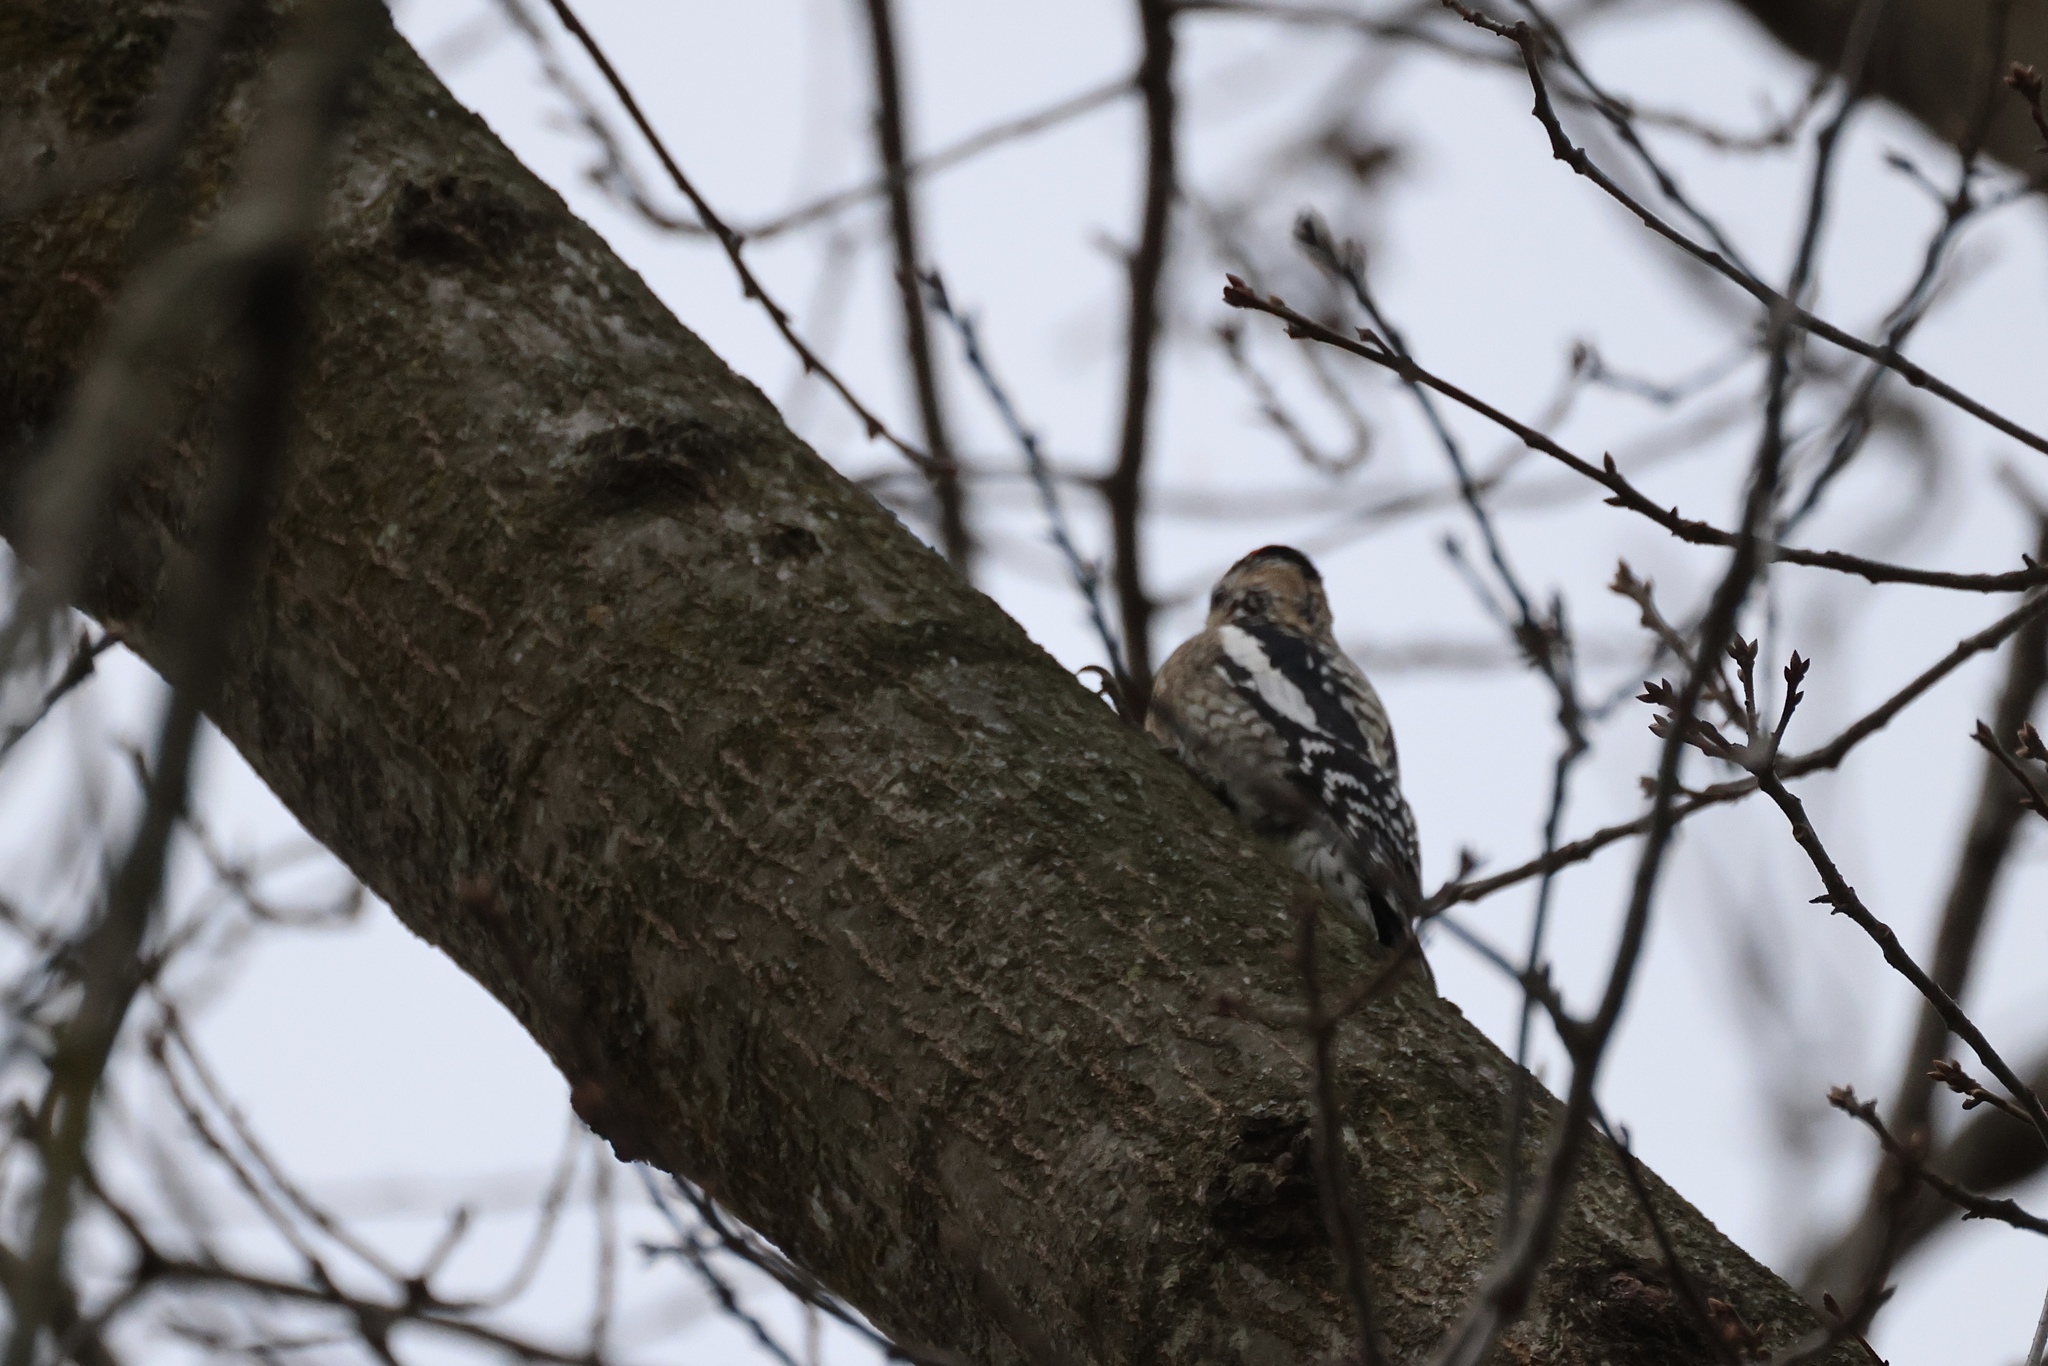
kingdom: Animalia
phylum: Chordata
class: Aves
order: Piciformes
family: Picidae
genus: Sphyrapicus
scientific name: Sphyrapicus varius
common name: Yellow-bellied sapsucker
